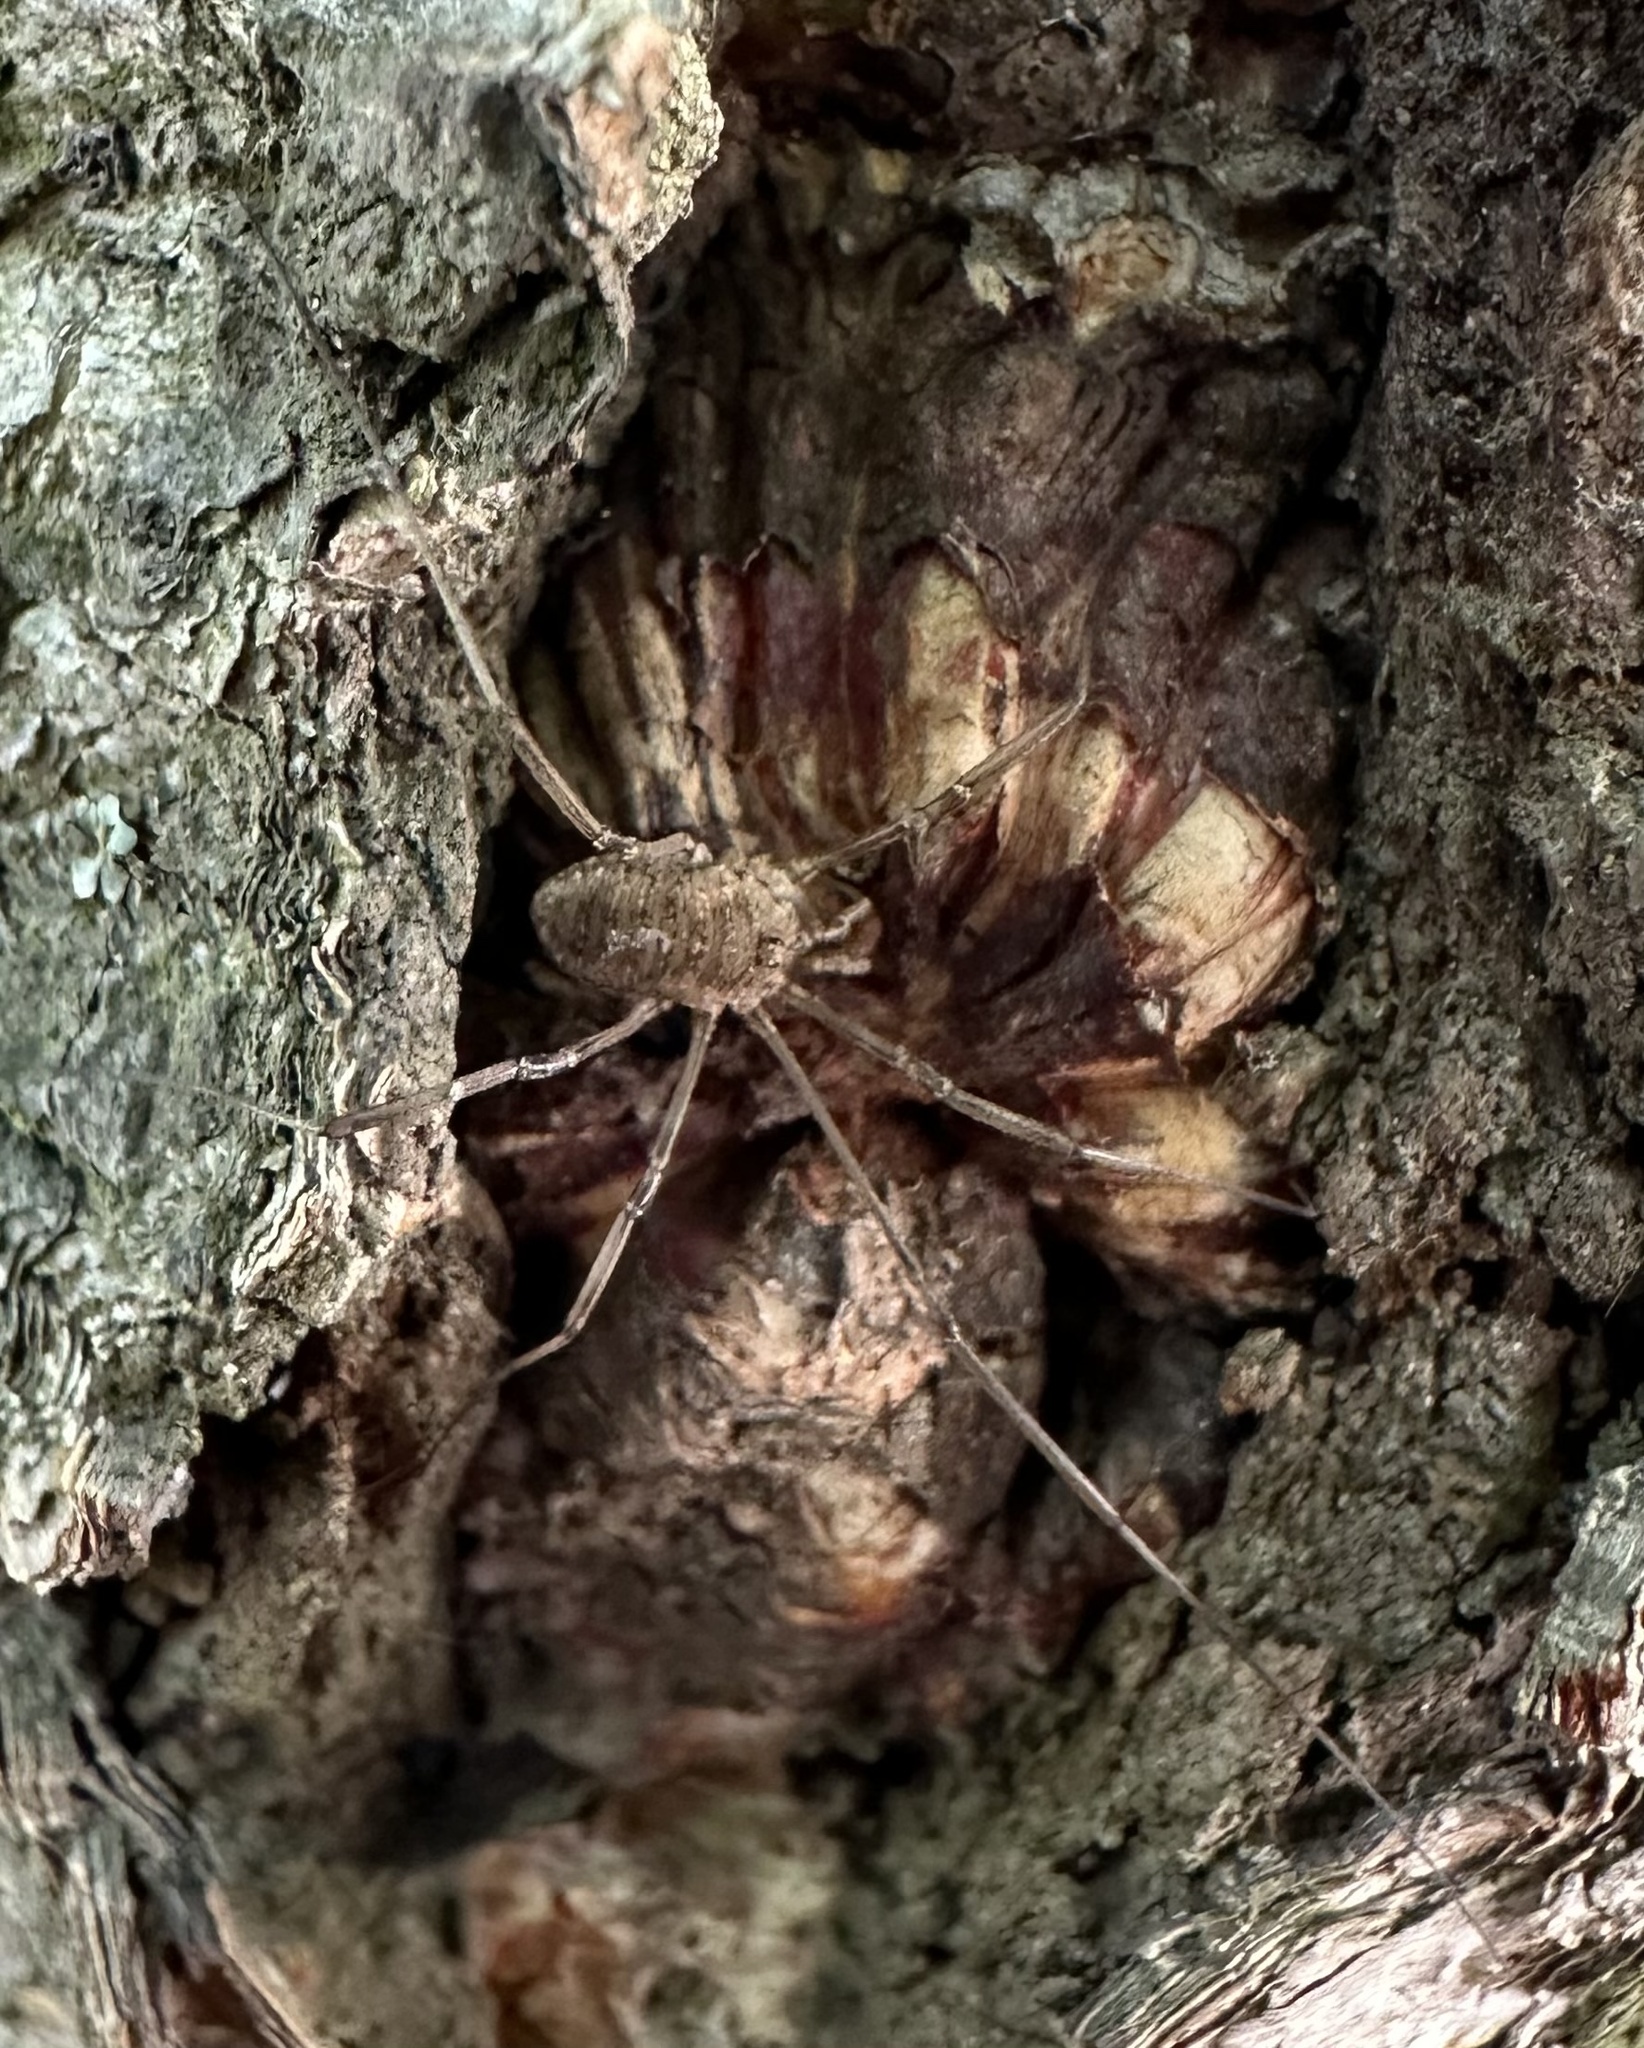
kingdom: Animalia
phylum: Arthropoda
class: Arachnida
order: Opiliones
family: Phalangiidae
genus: Phalangium
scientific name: Phalangium opilio
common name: Daddy longleg
